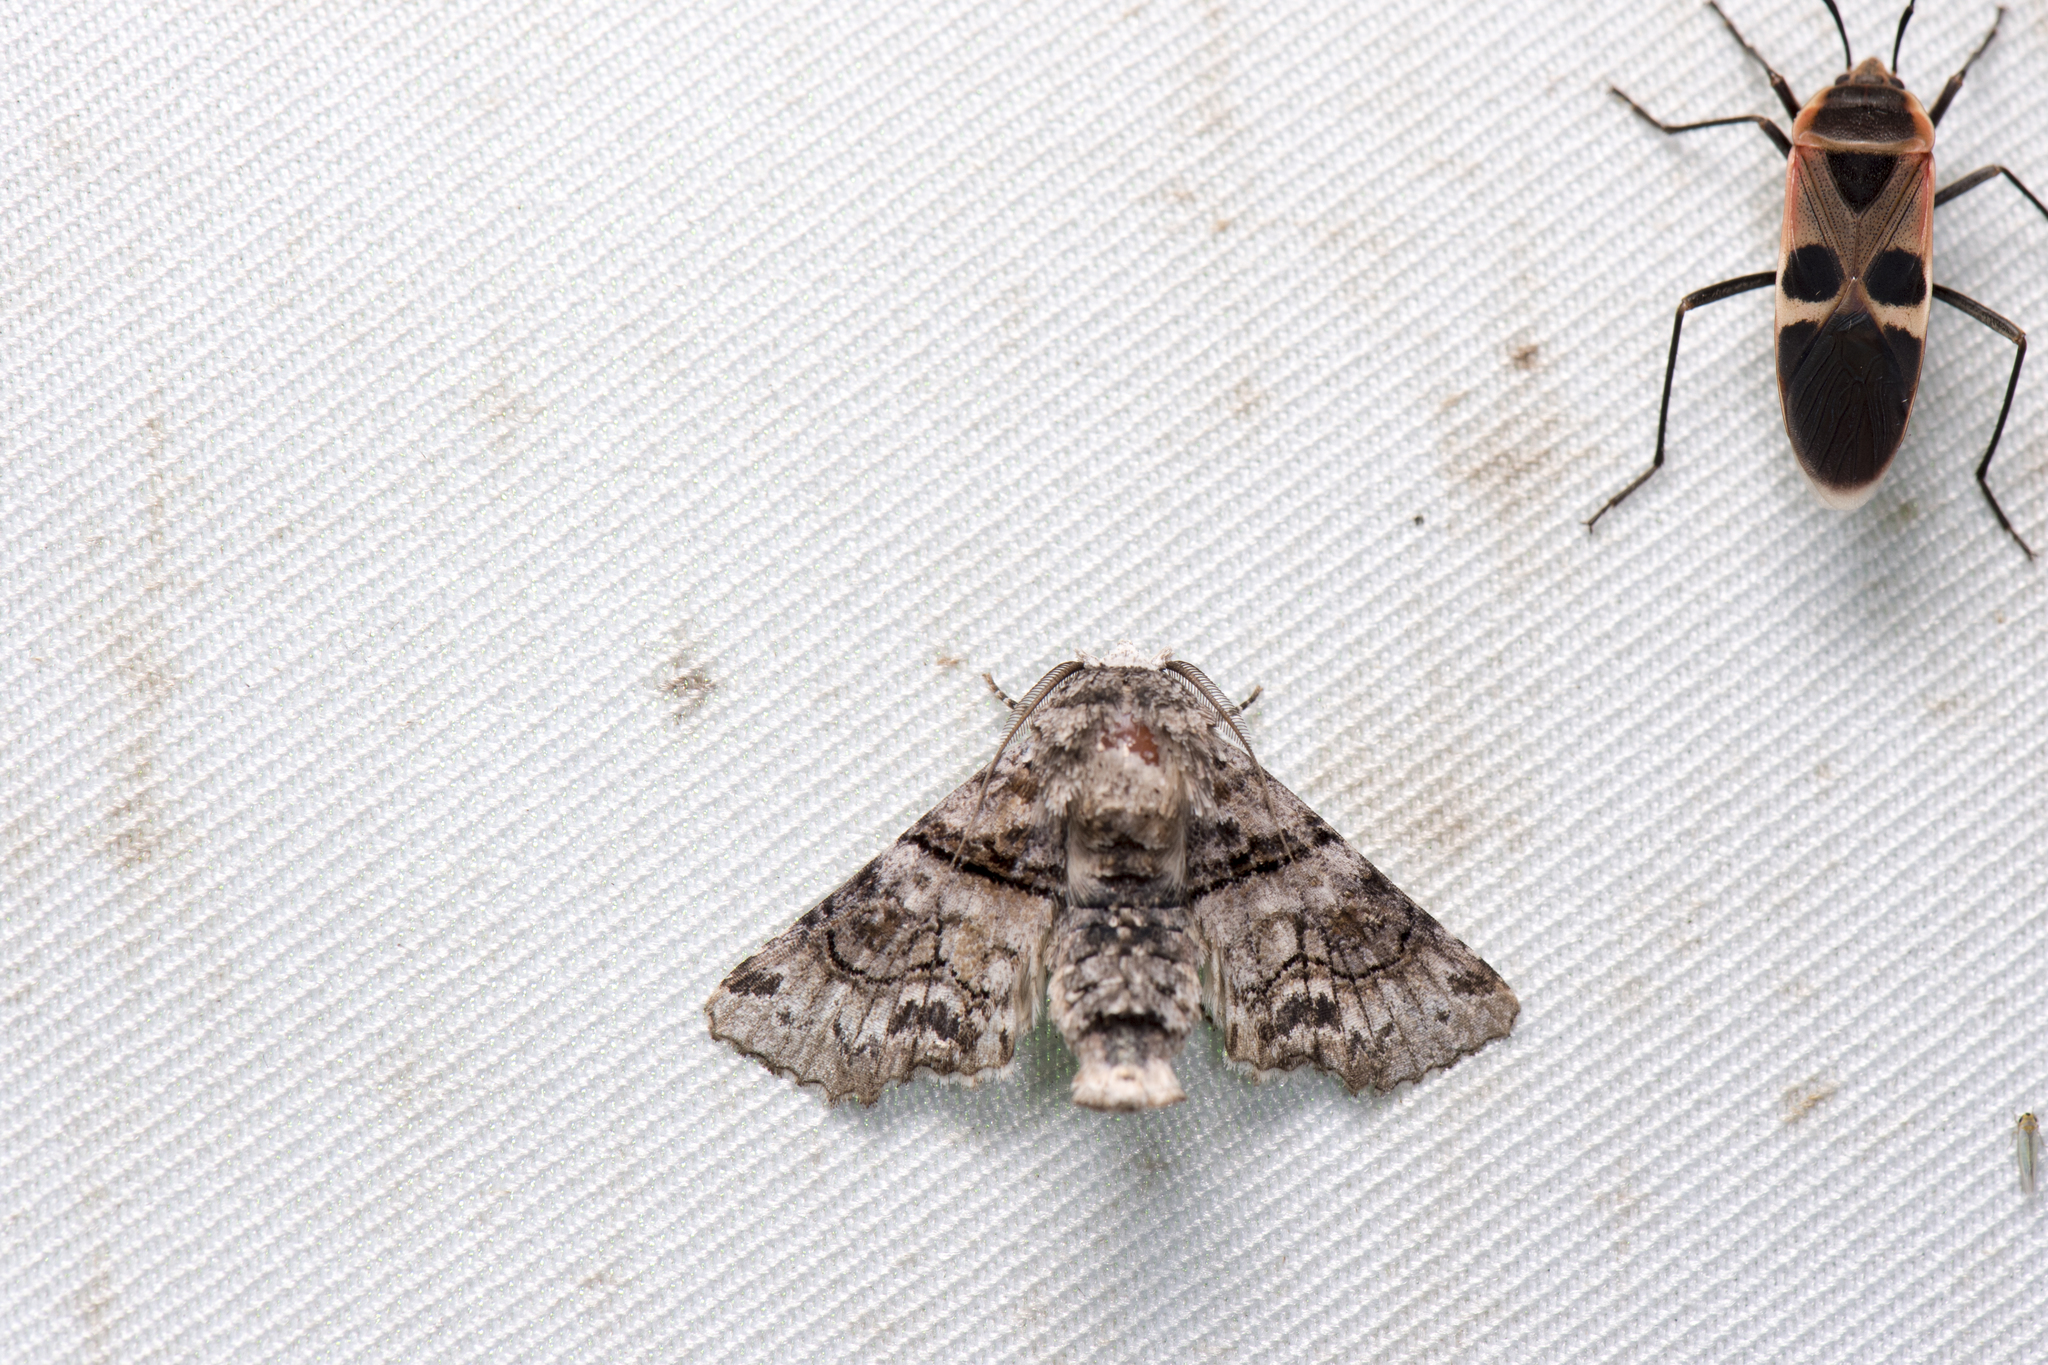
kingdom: Animalia
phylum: Arthropoda
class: Insecta
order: Lepidoptera
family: Euteliidae
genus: Aplotelia
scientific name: Aplotelia diplographa
